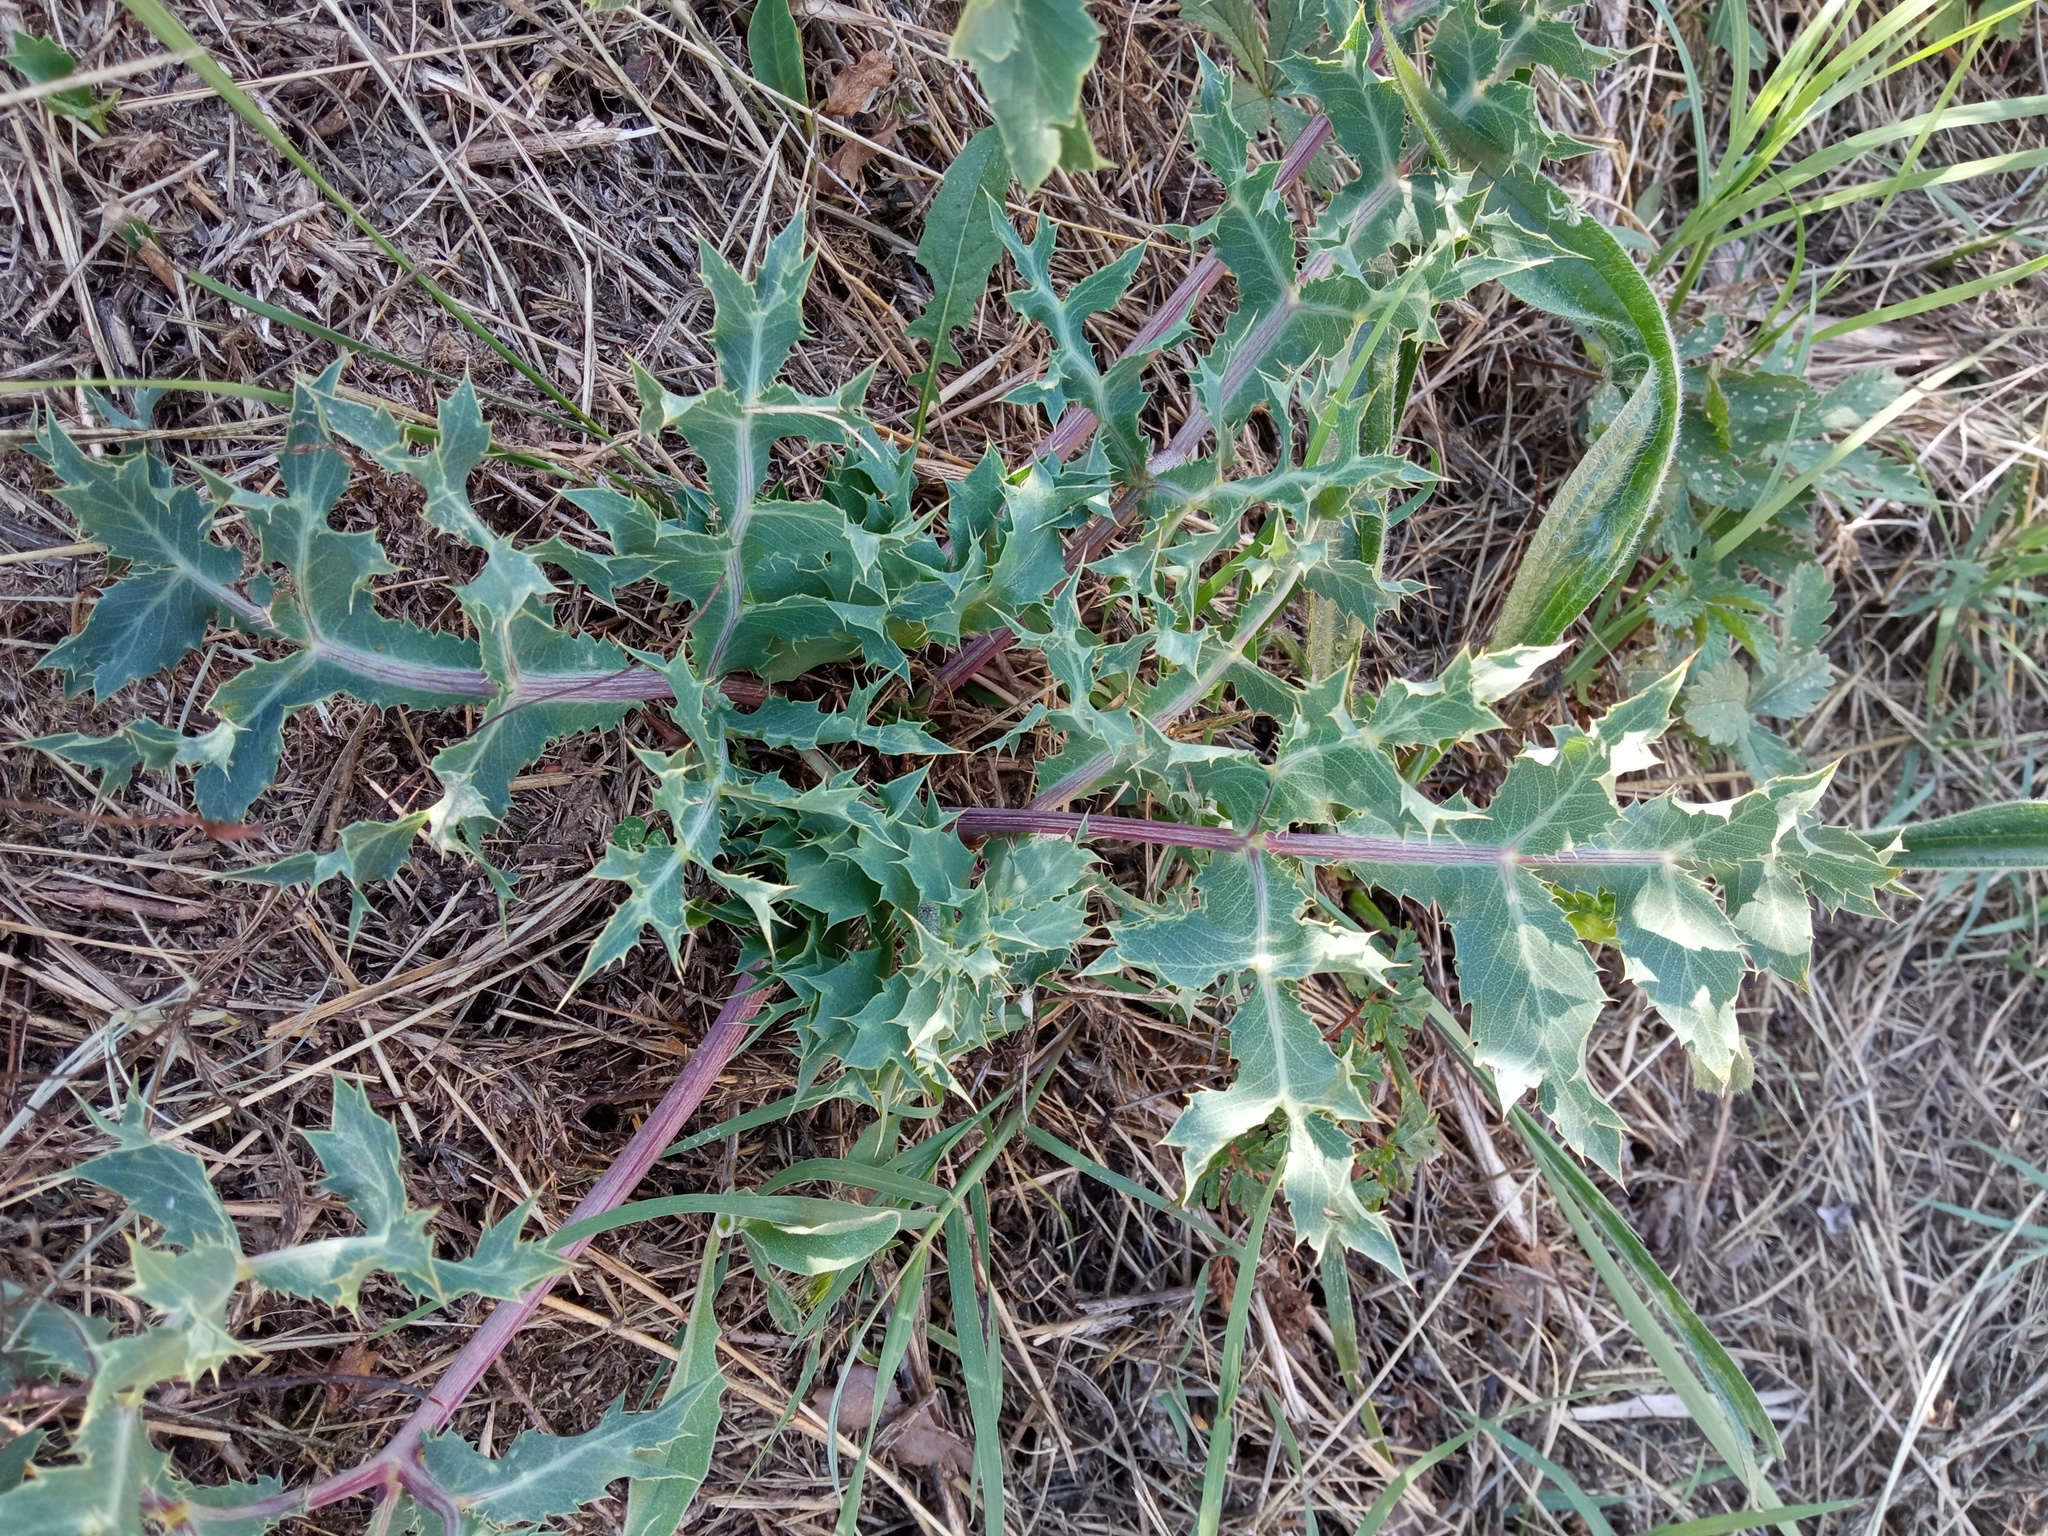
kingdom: Plantae
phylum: Tracheophyta
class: Magnoliopsida
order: Apiales
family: Apiaceae
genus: Eryngium
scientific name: Eryngium campestre
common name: Field eryngo
